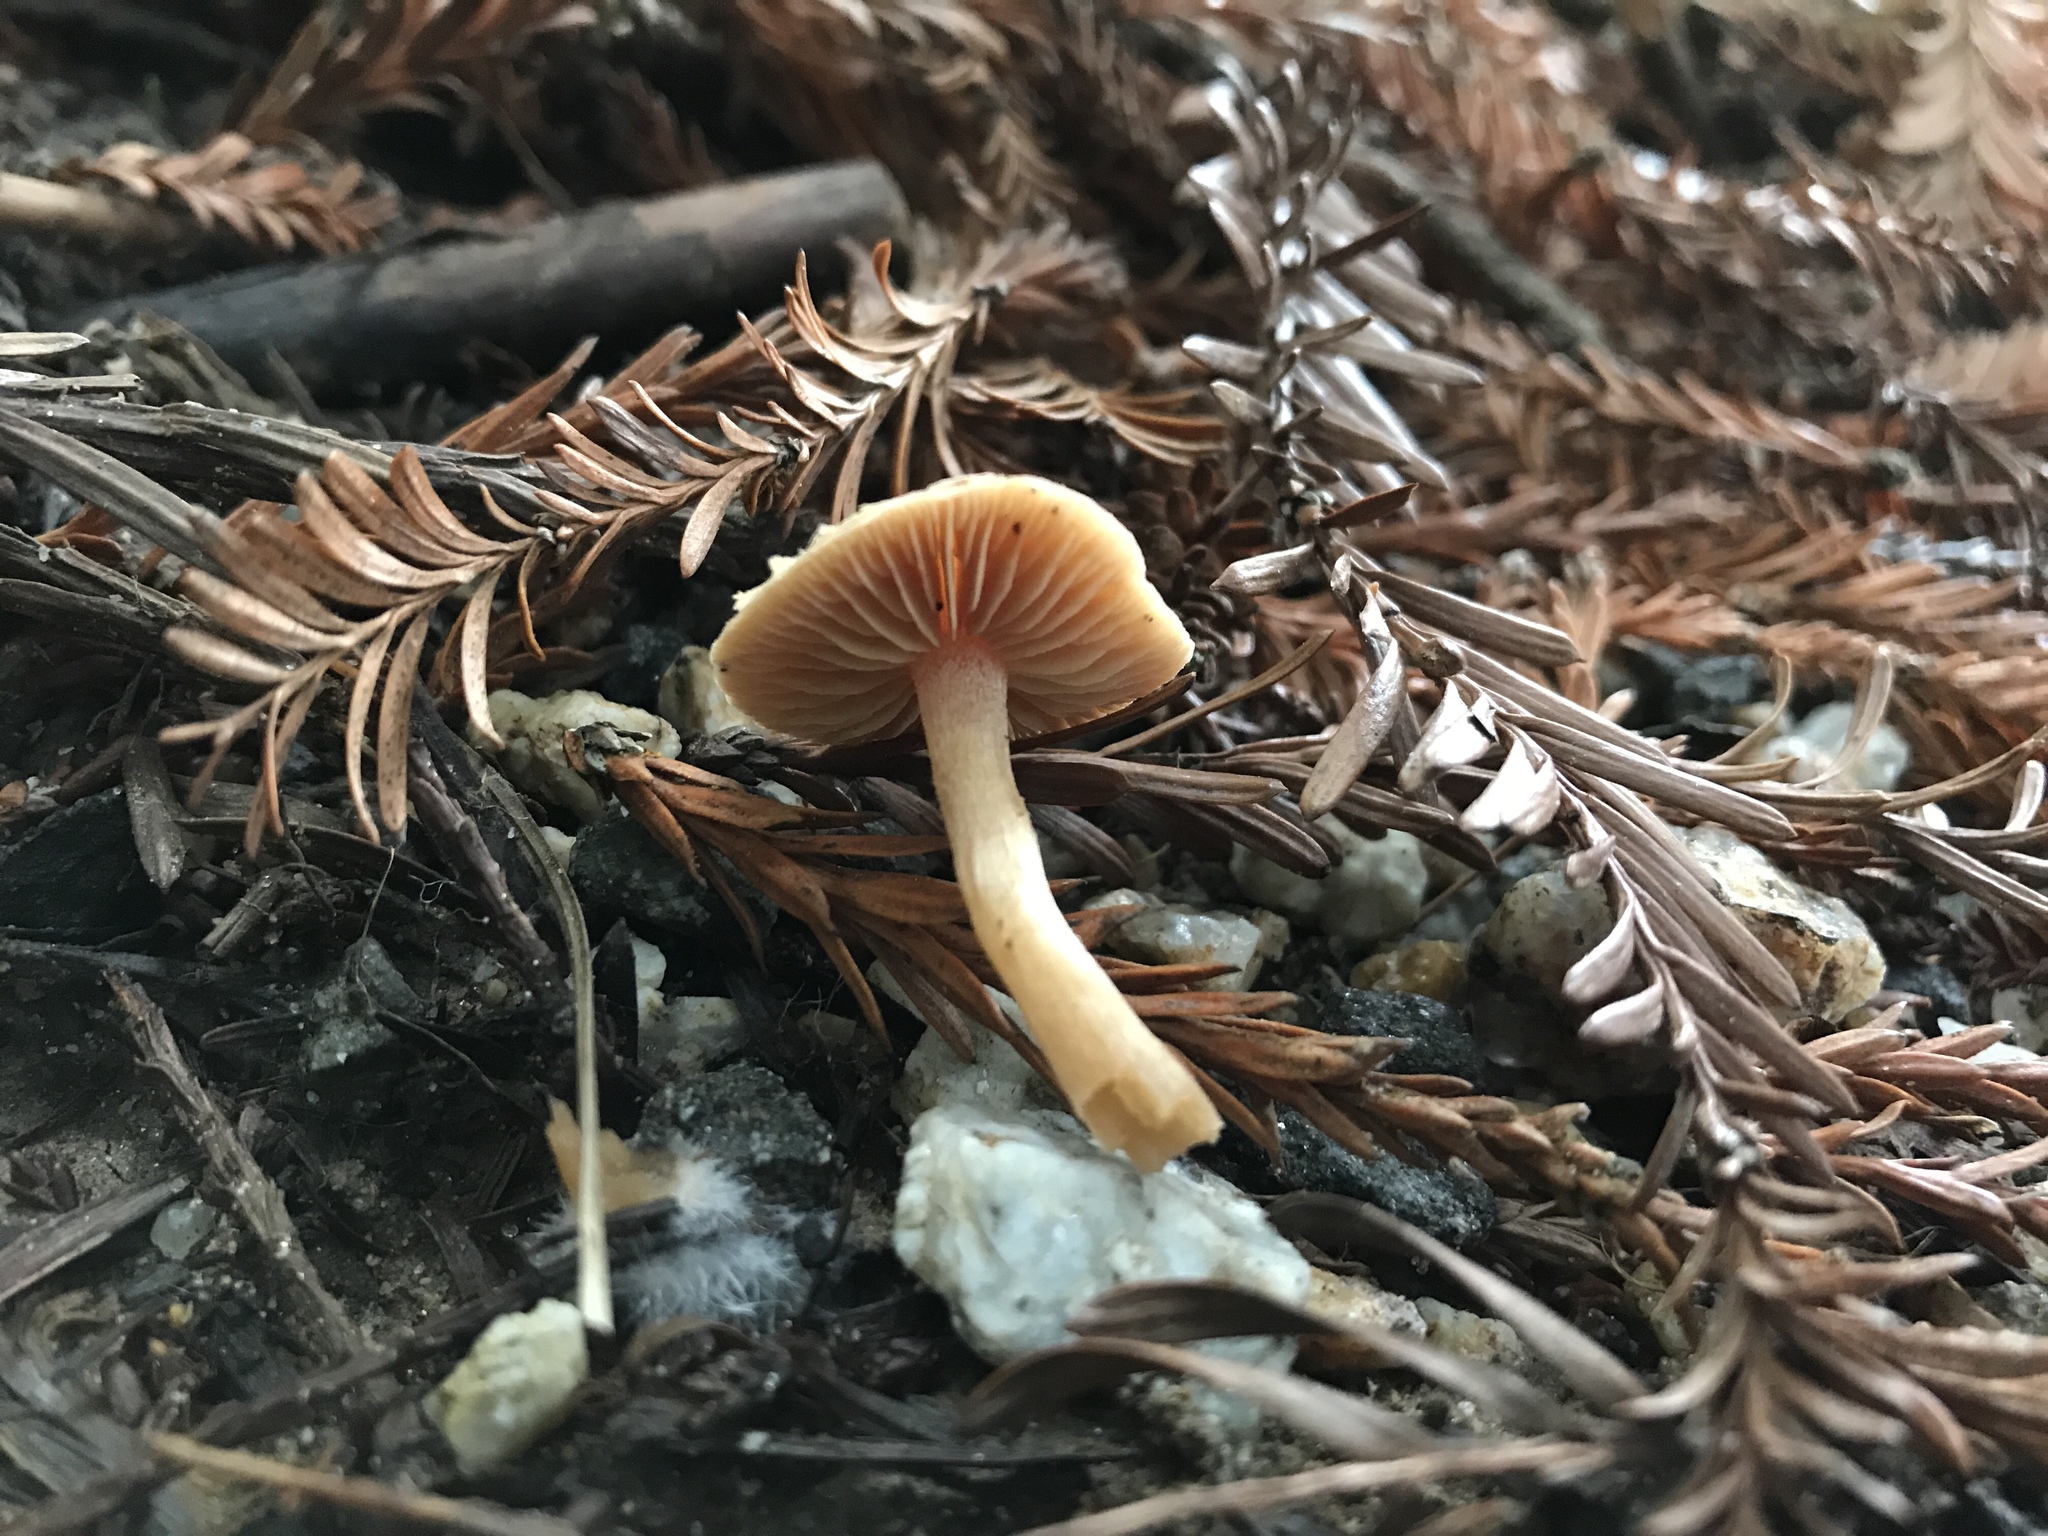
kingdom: Fungi
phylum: Basidiomycota
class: Agaricomycetes
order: Agaricales
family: Tubariaceae
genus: Tubaria
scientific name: Tubaria furfuracea
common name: Scurfy twiglet
